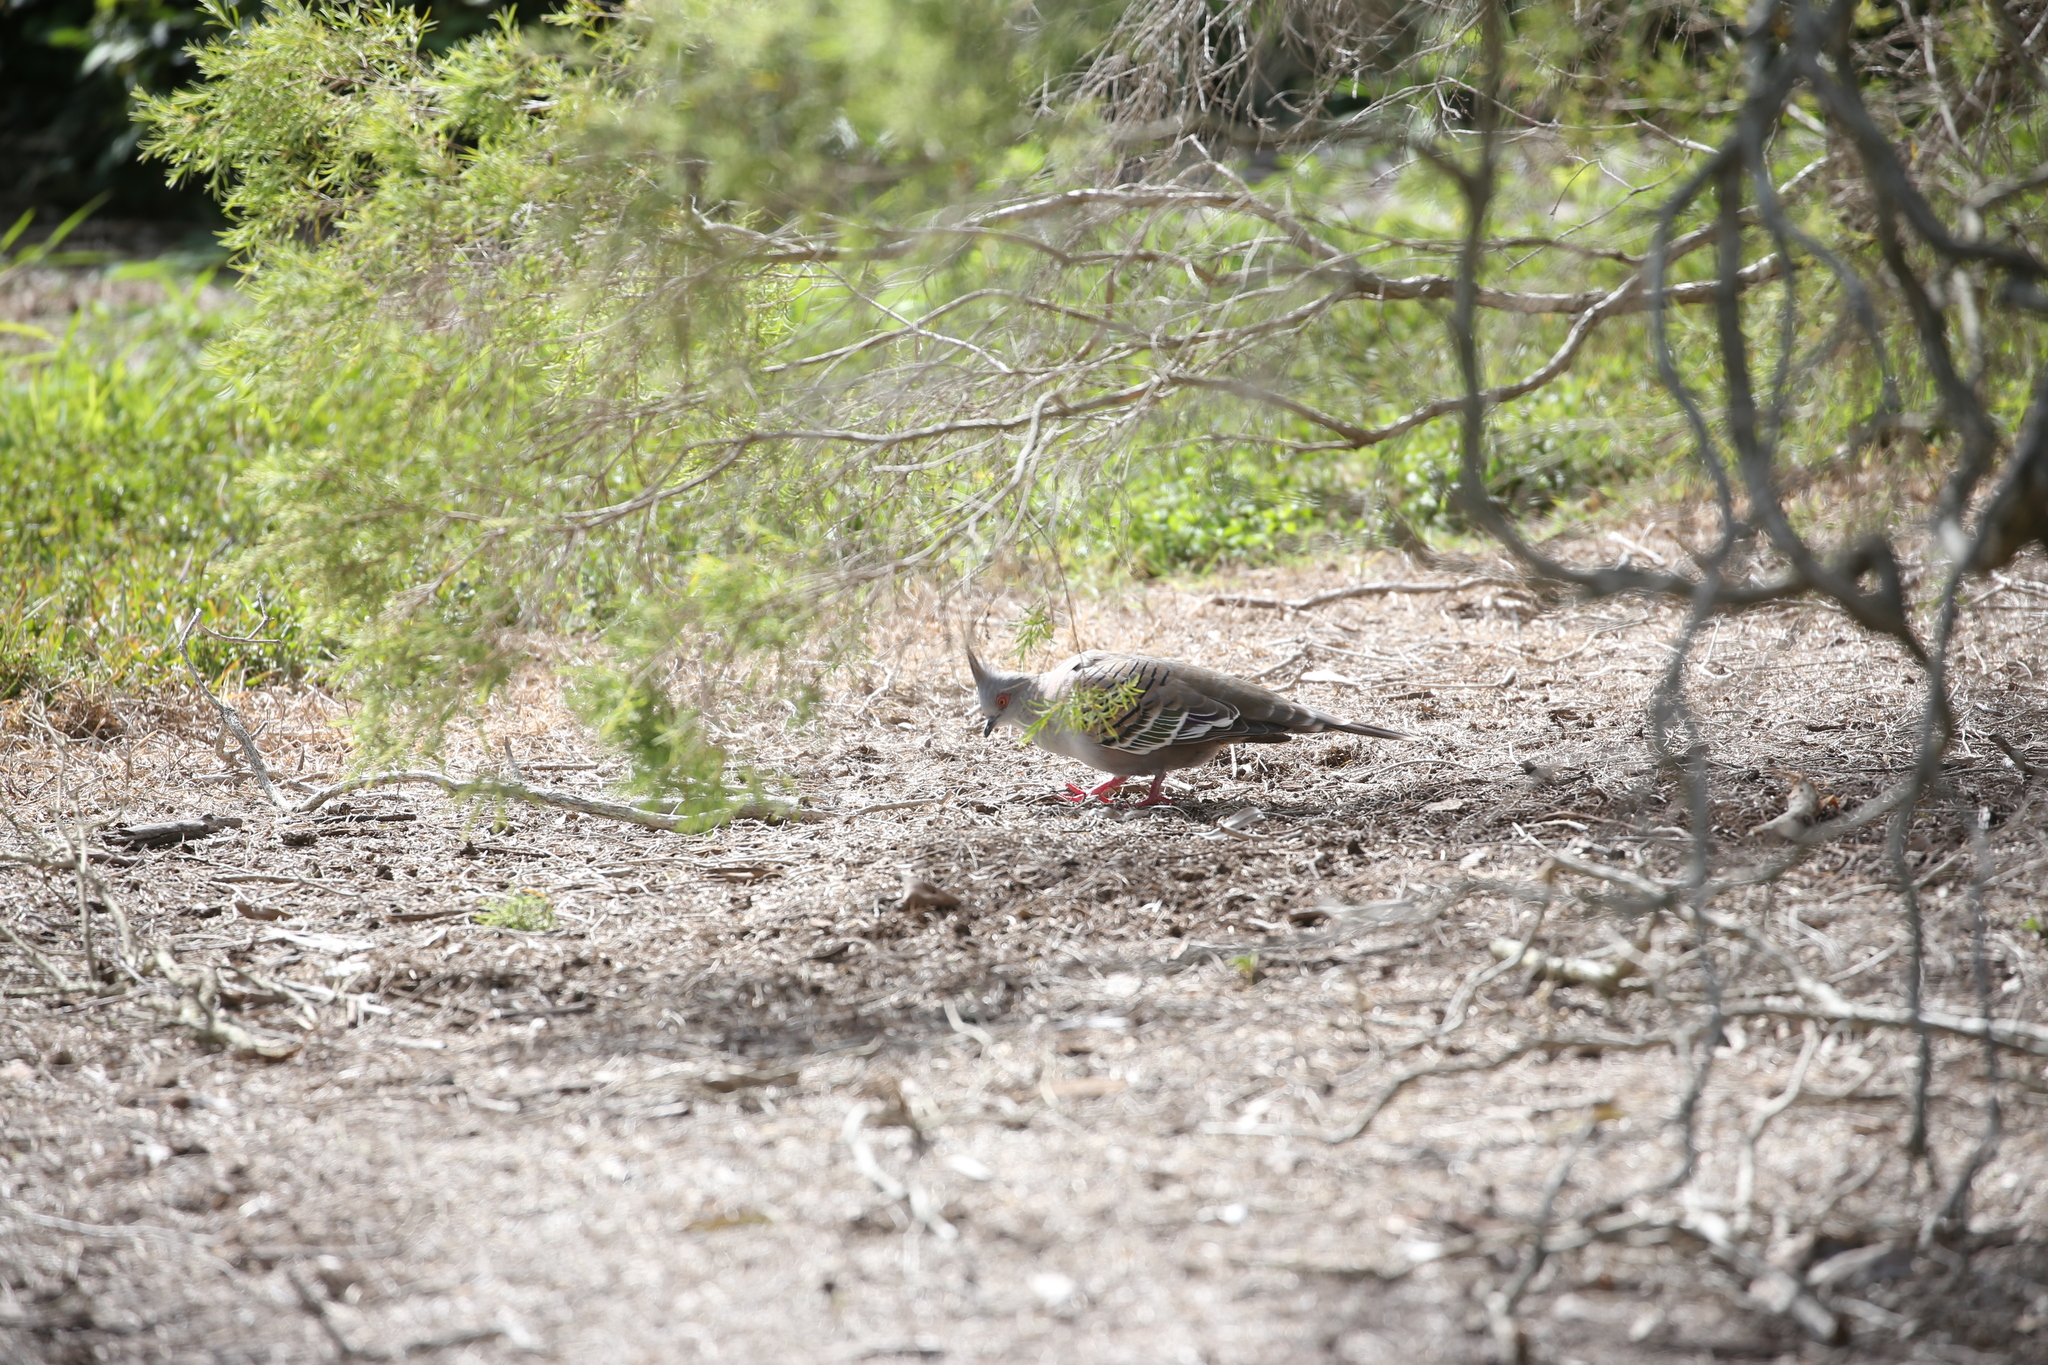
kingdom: Animalia
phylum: Chordata
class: Aves
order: Columbiformes
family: Columbidae
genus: Ocyphaps
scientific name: Ocyphaps lophotes
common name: Crested pigeon
